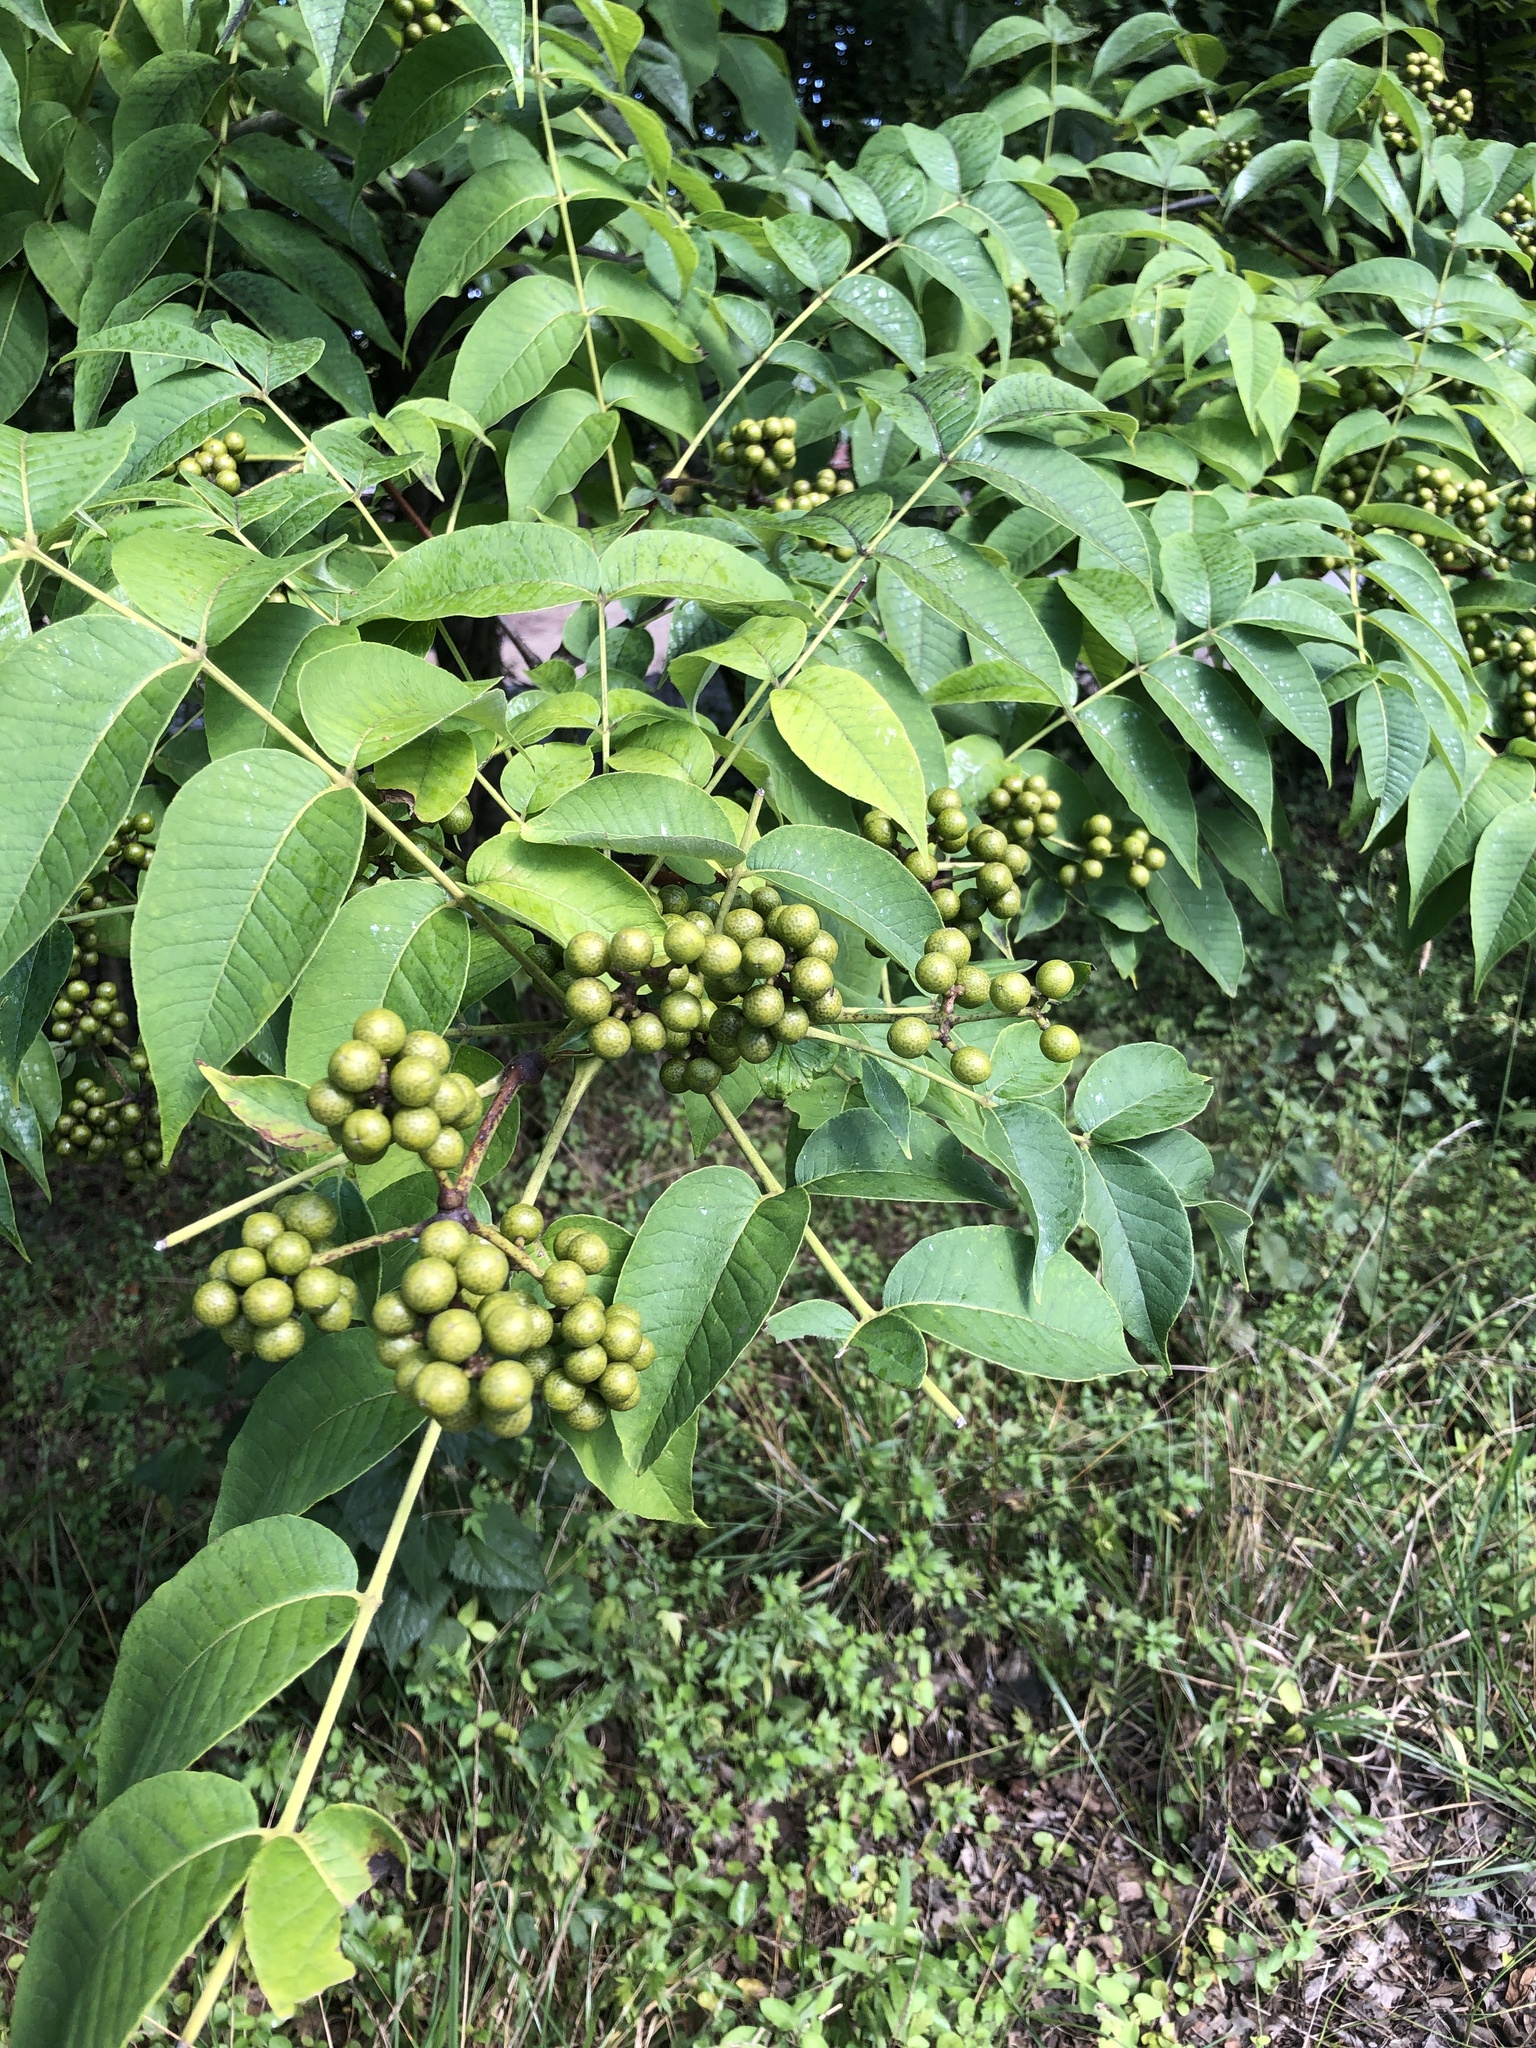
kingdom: Plantae
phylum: Tracheophyta
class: Magnoliopsida
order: Sapindales
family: Rutaceae
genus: Phellodendron
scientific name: Phellodendron amurense
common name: Amur corktree
